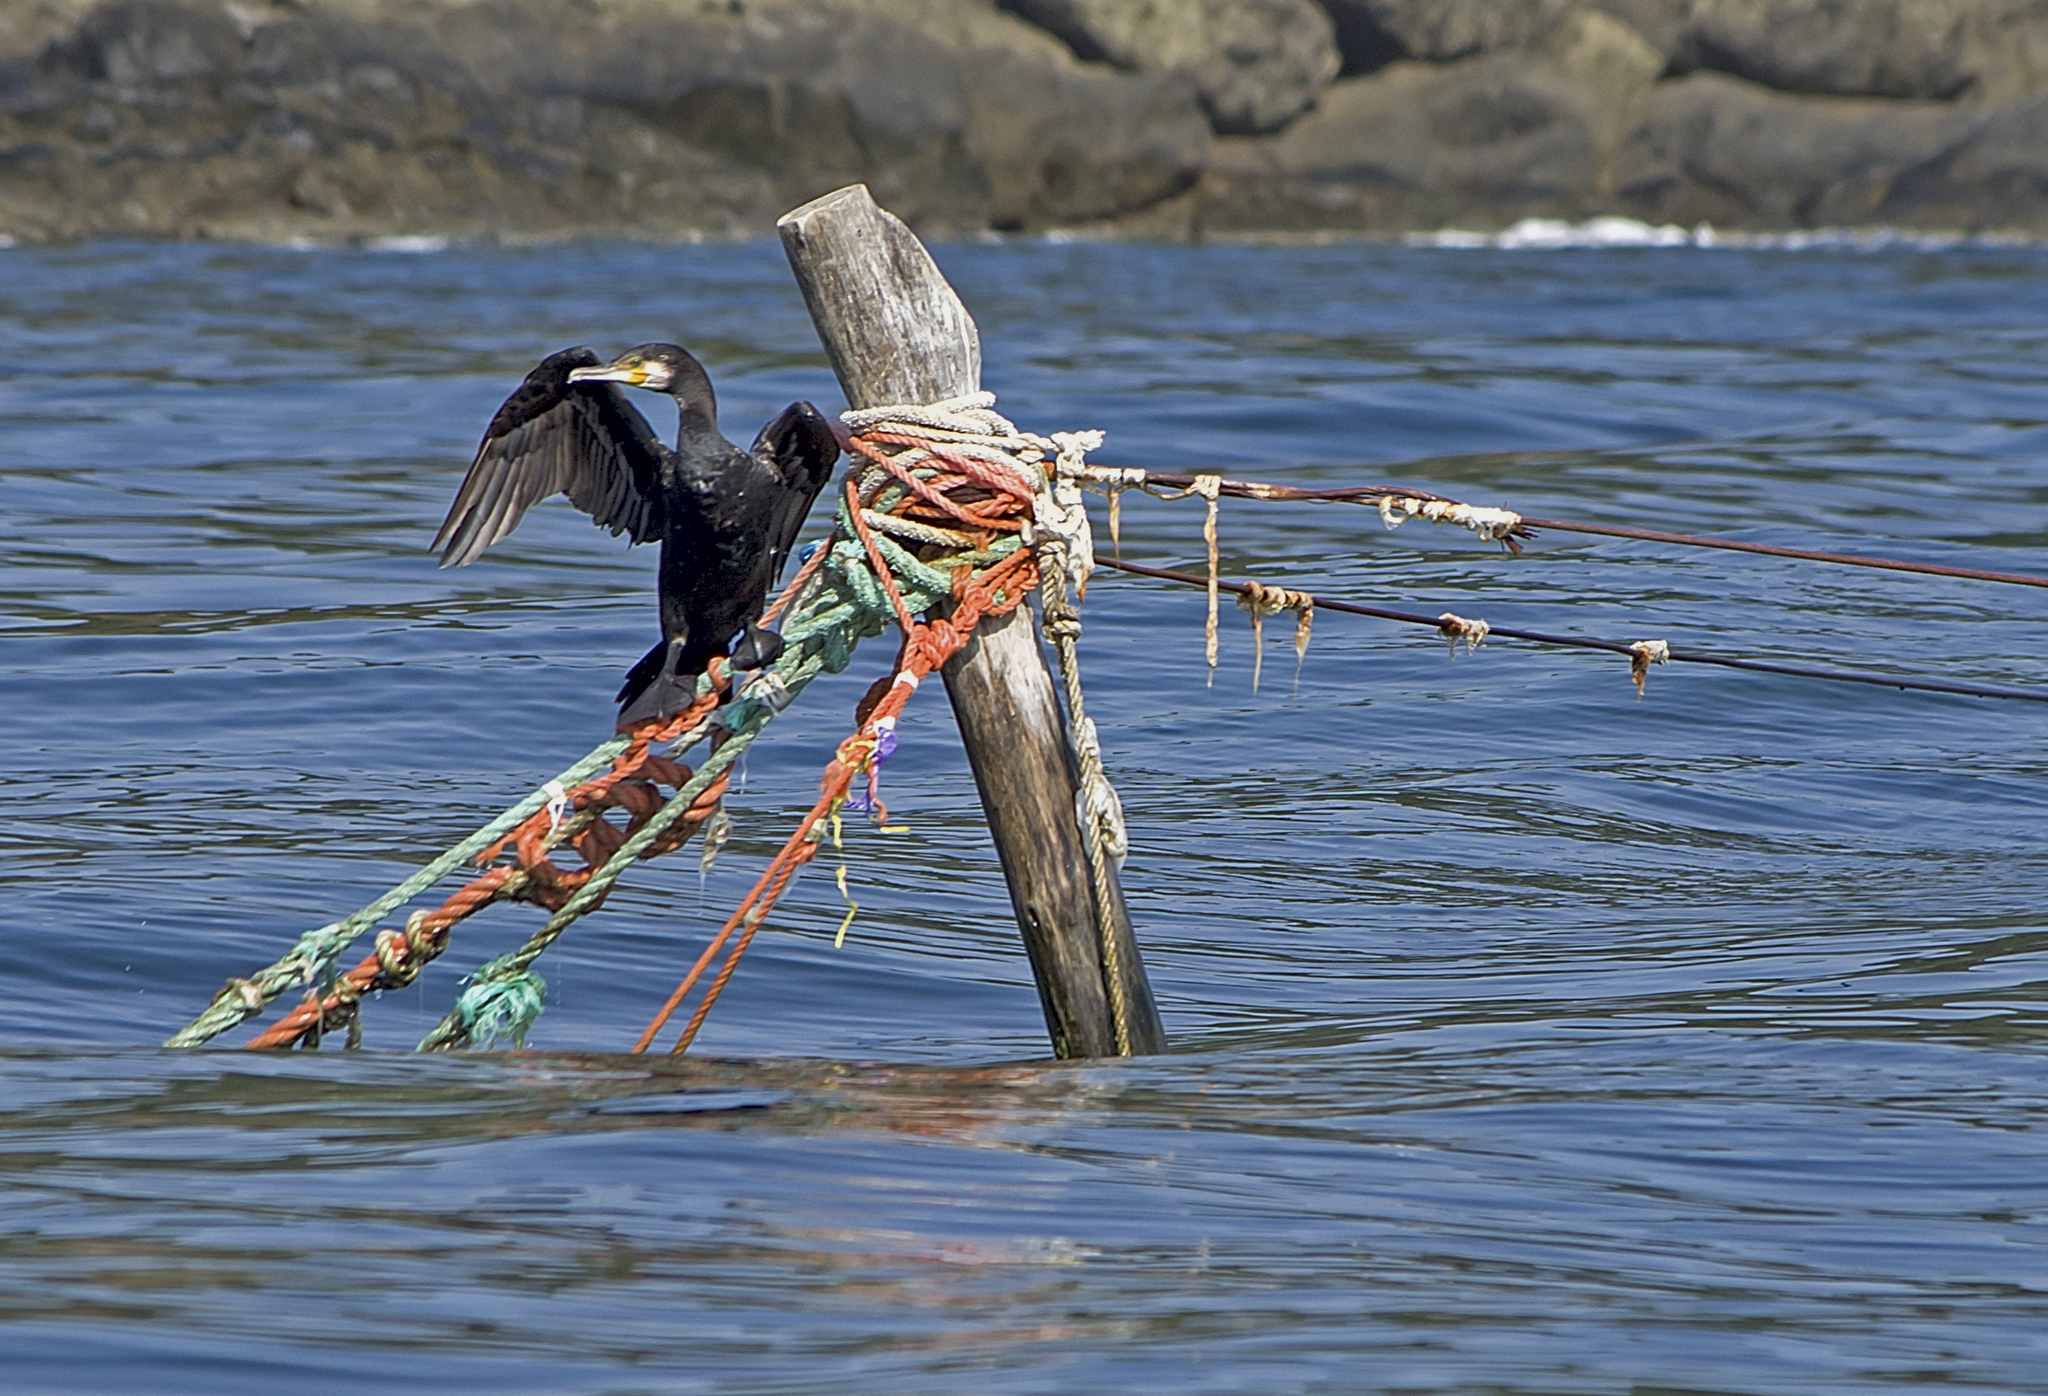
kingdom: Animalia
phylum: Chordata
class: Aves
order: Suliformes
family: Phalacrocoracidae
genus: Phalacrocorax
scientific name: Phalacrocorax carbo
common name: Great cormorant
